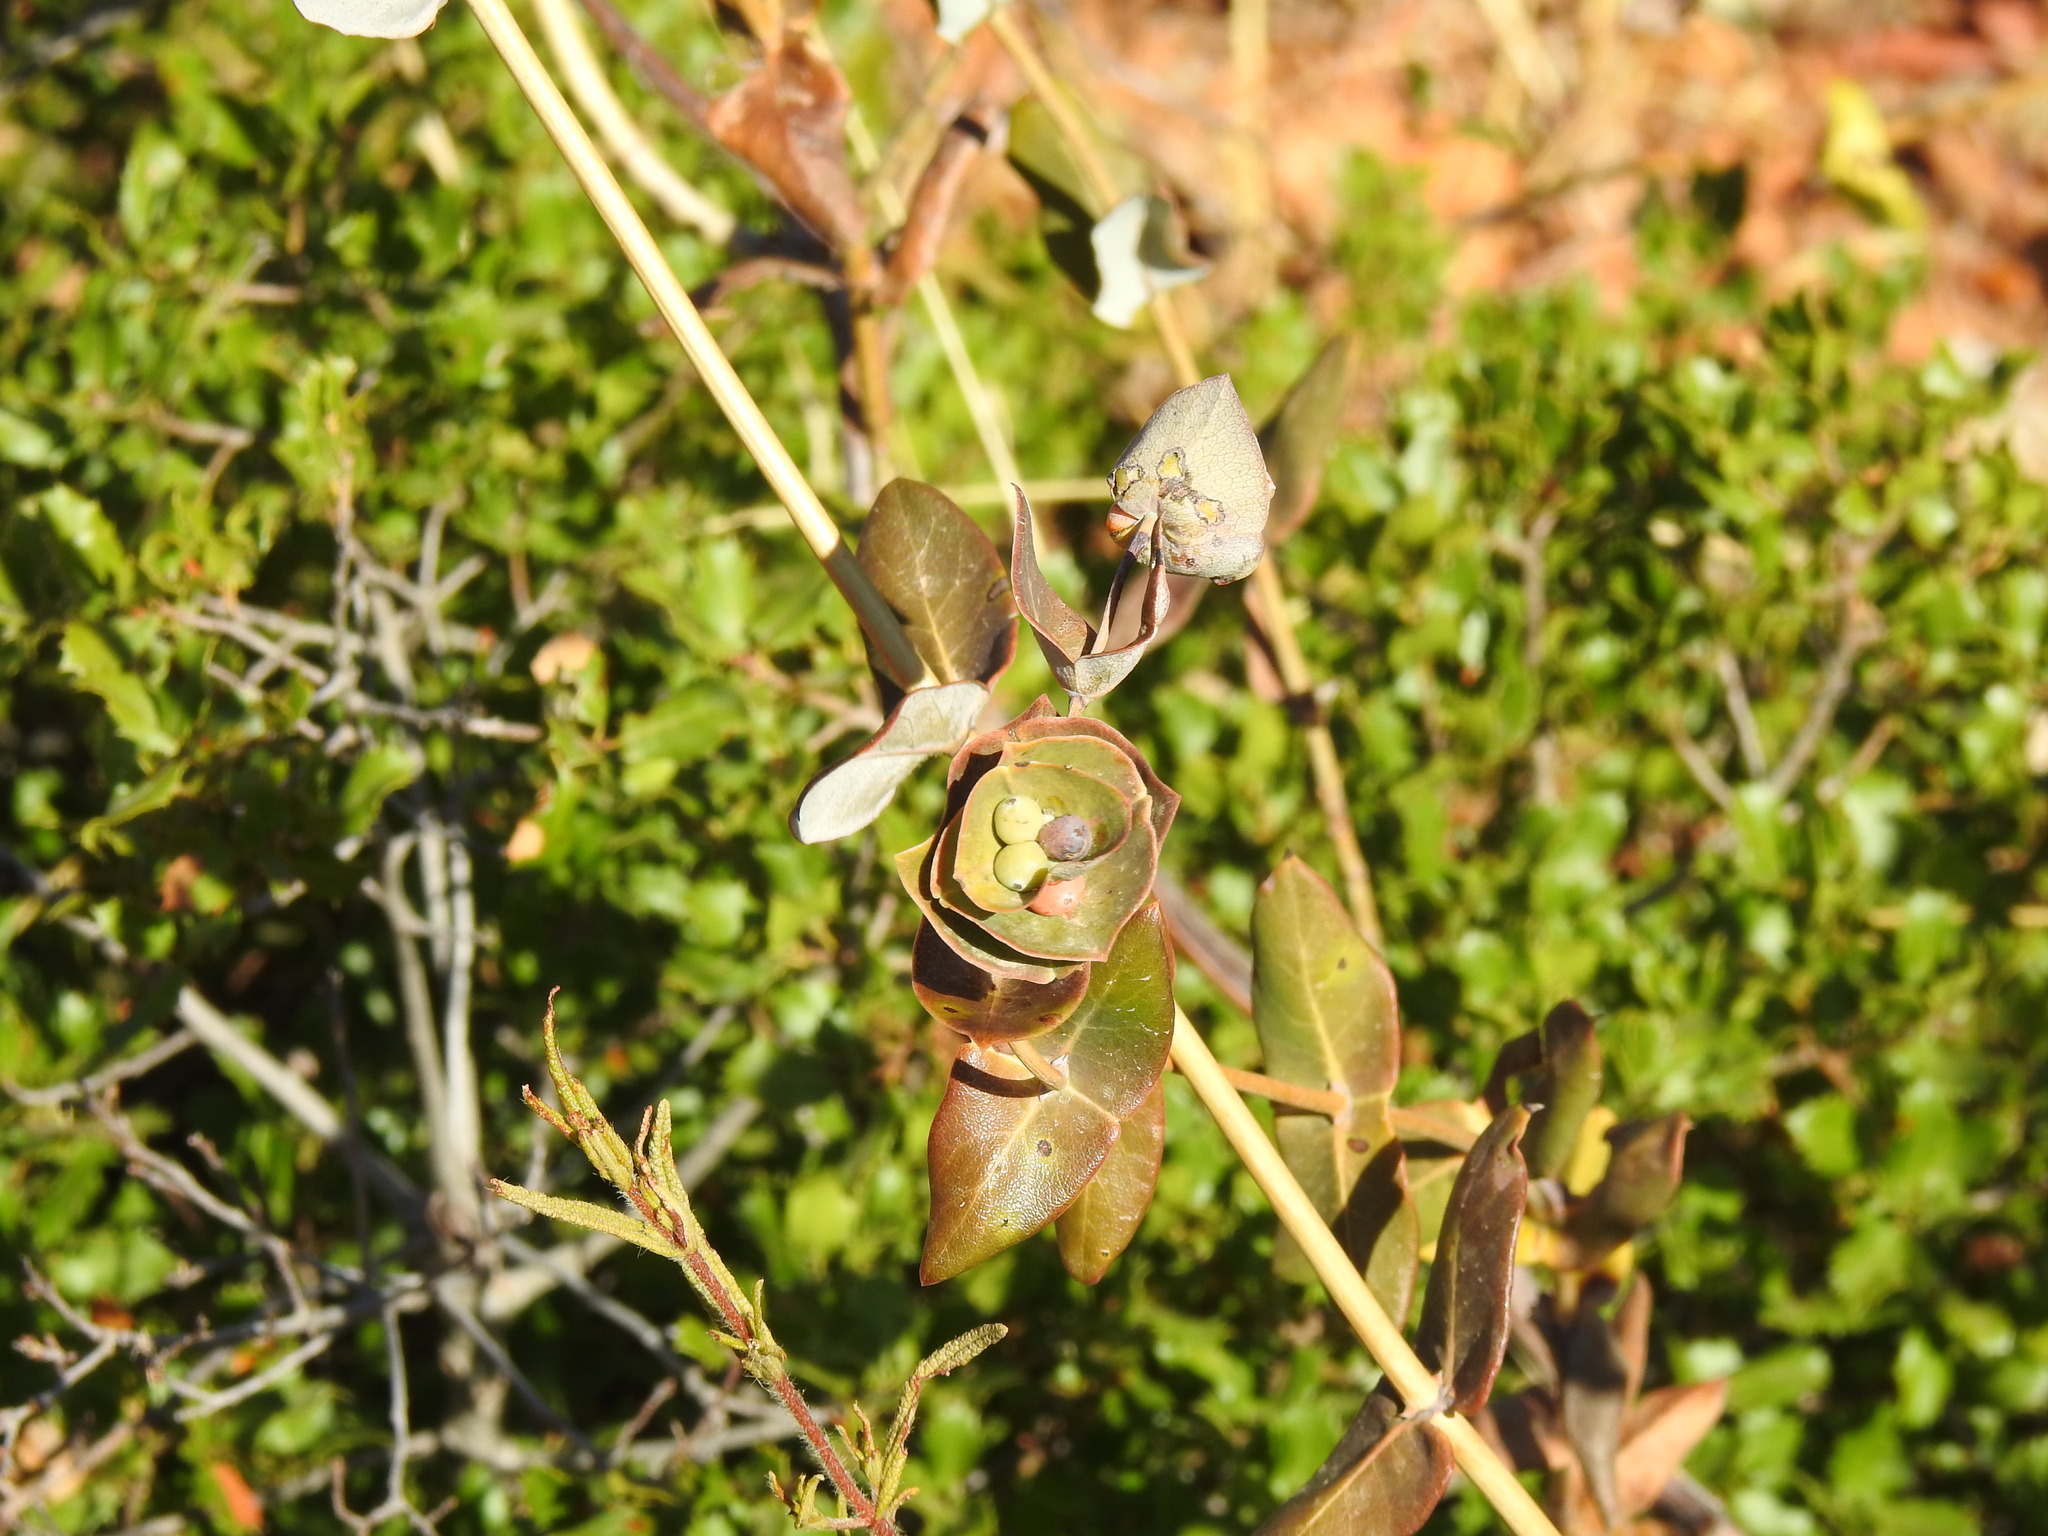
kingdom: Plantae
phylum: Tracheophyta
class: Magnoliopsida
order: Dipsacales
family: Caprifoliaceae
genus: Lonicera
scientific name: Lonicera implexa
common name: Minorca honeysuckle
